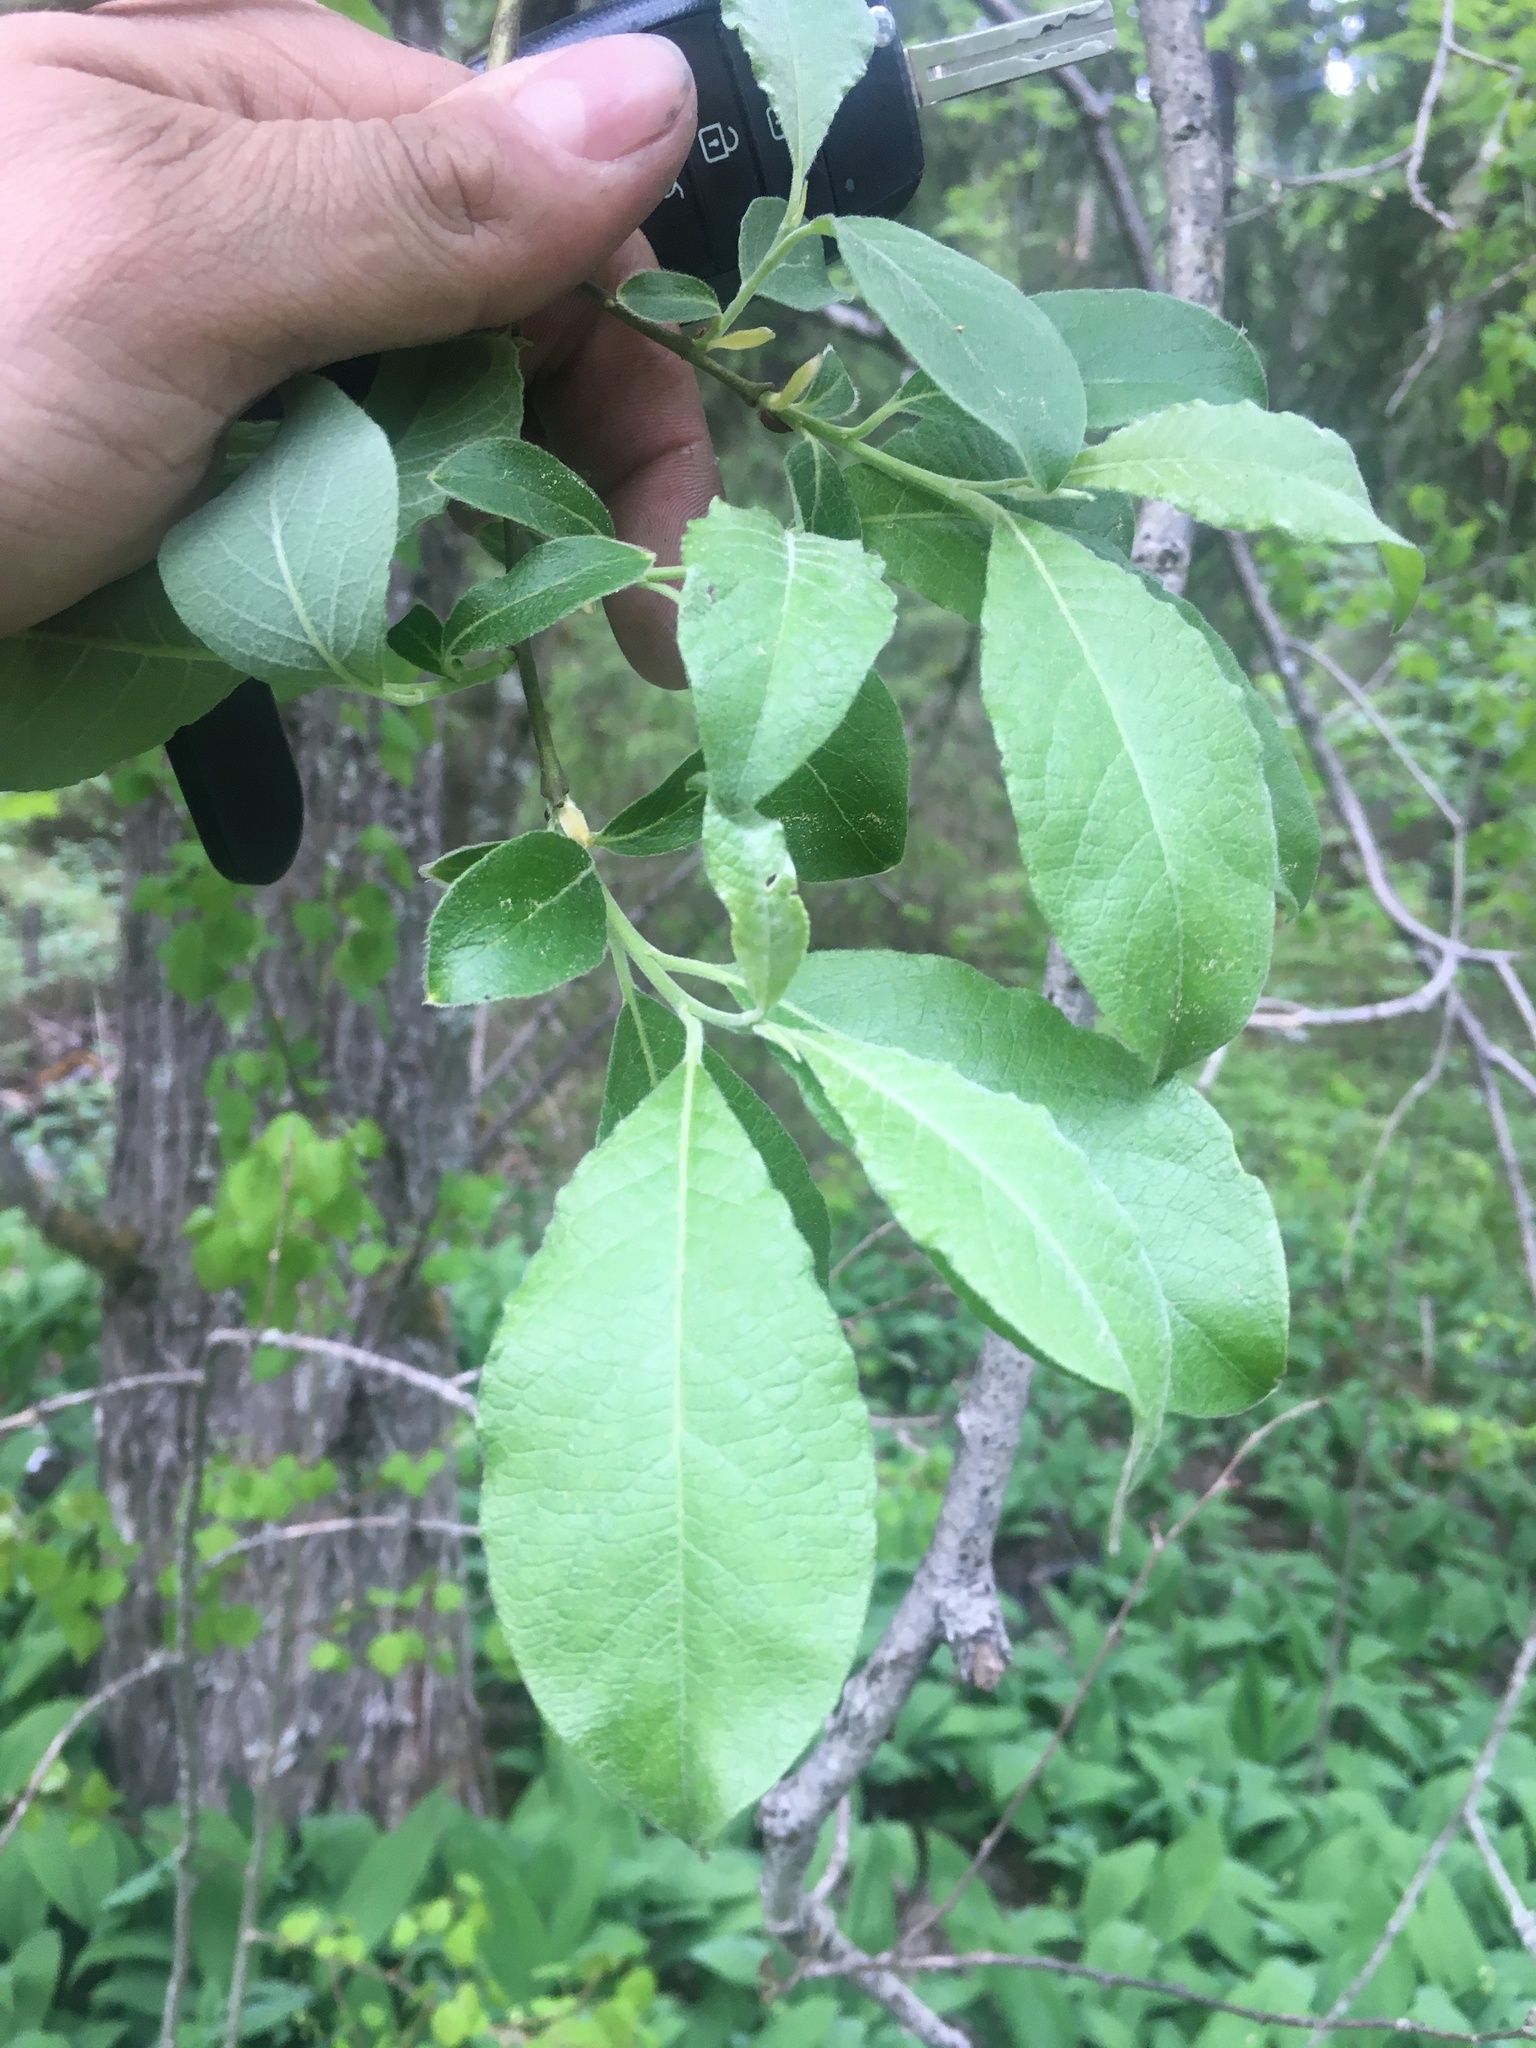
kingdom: Plantae
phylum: Tracheophyta
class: Magnoliopsida
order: Malpighiales
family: Salicaceae
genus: Salix
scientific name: Salix caprea
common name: Goat willow
